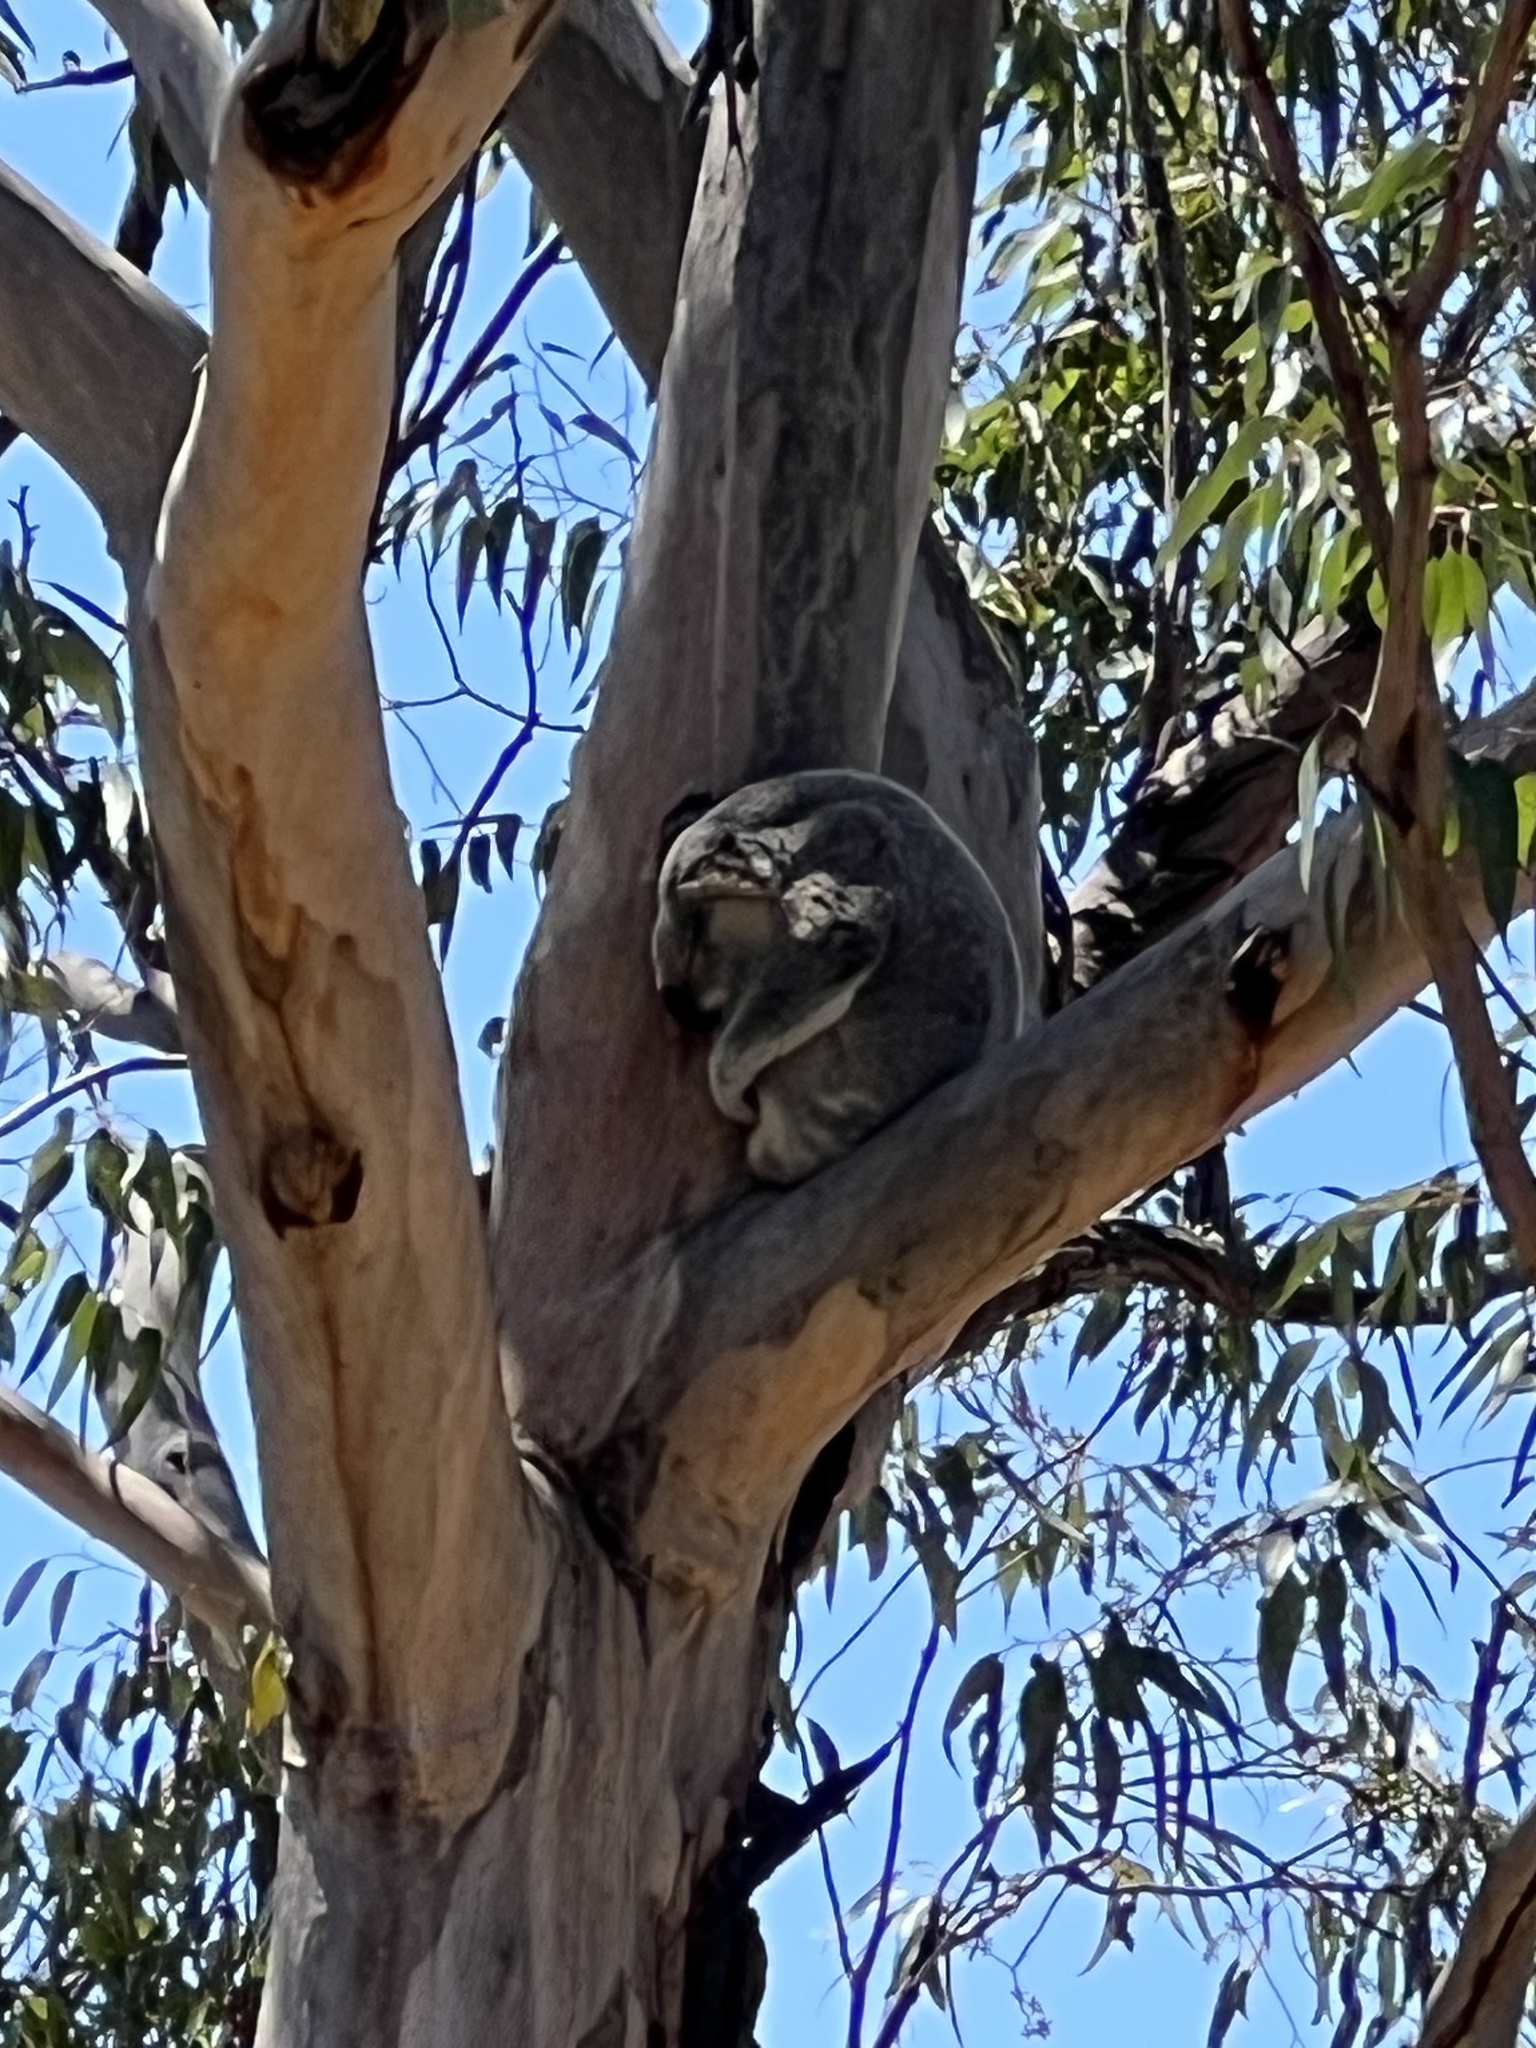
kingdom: Animalia
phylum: Chordata
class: Mammalia
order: Diprotodontia
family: Phascolarctidae
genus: Phascolarctos
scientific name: Phascolarctos cinereus
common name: Koala
